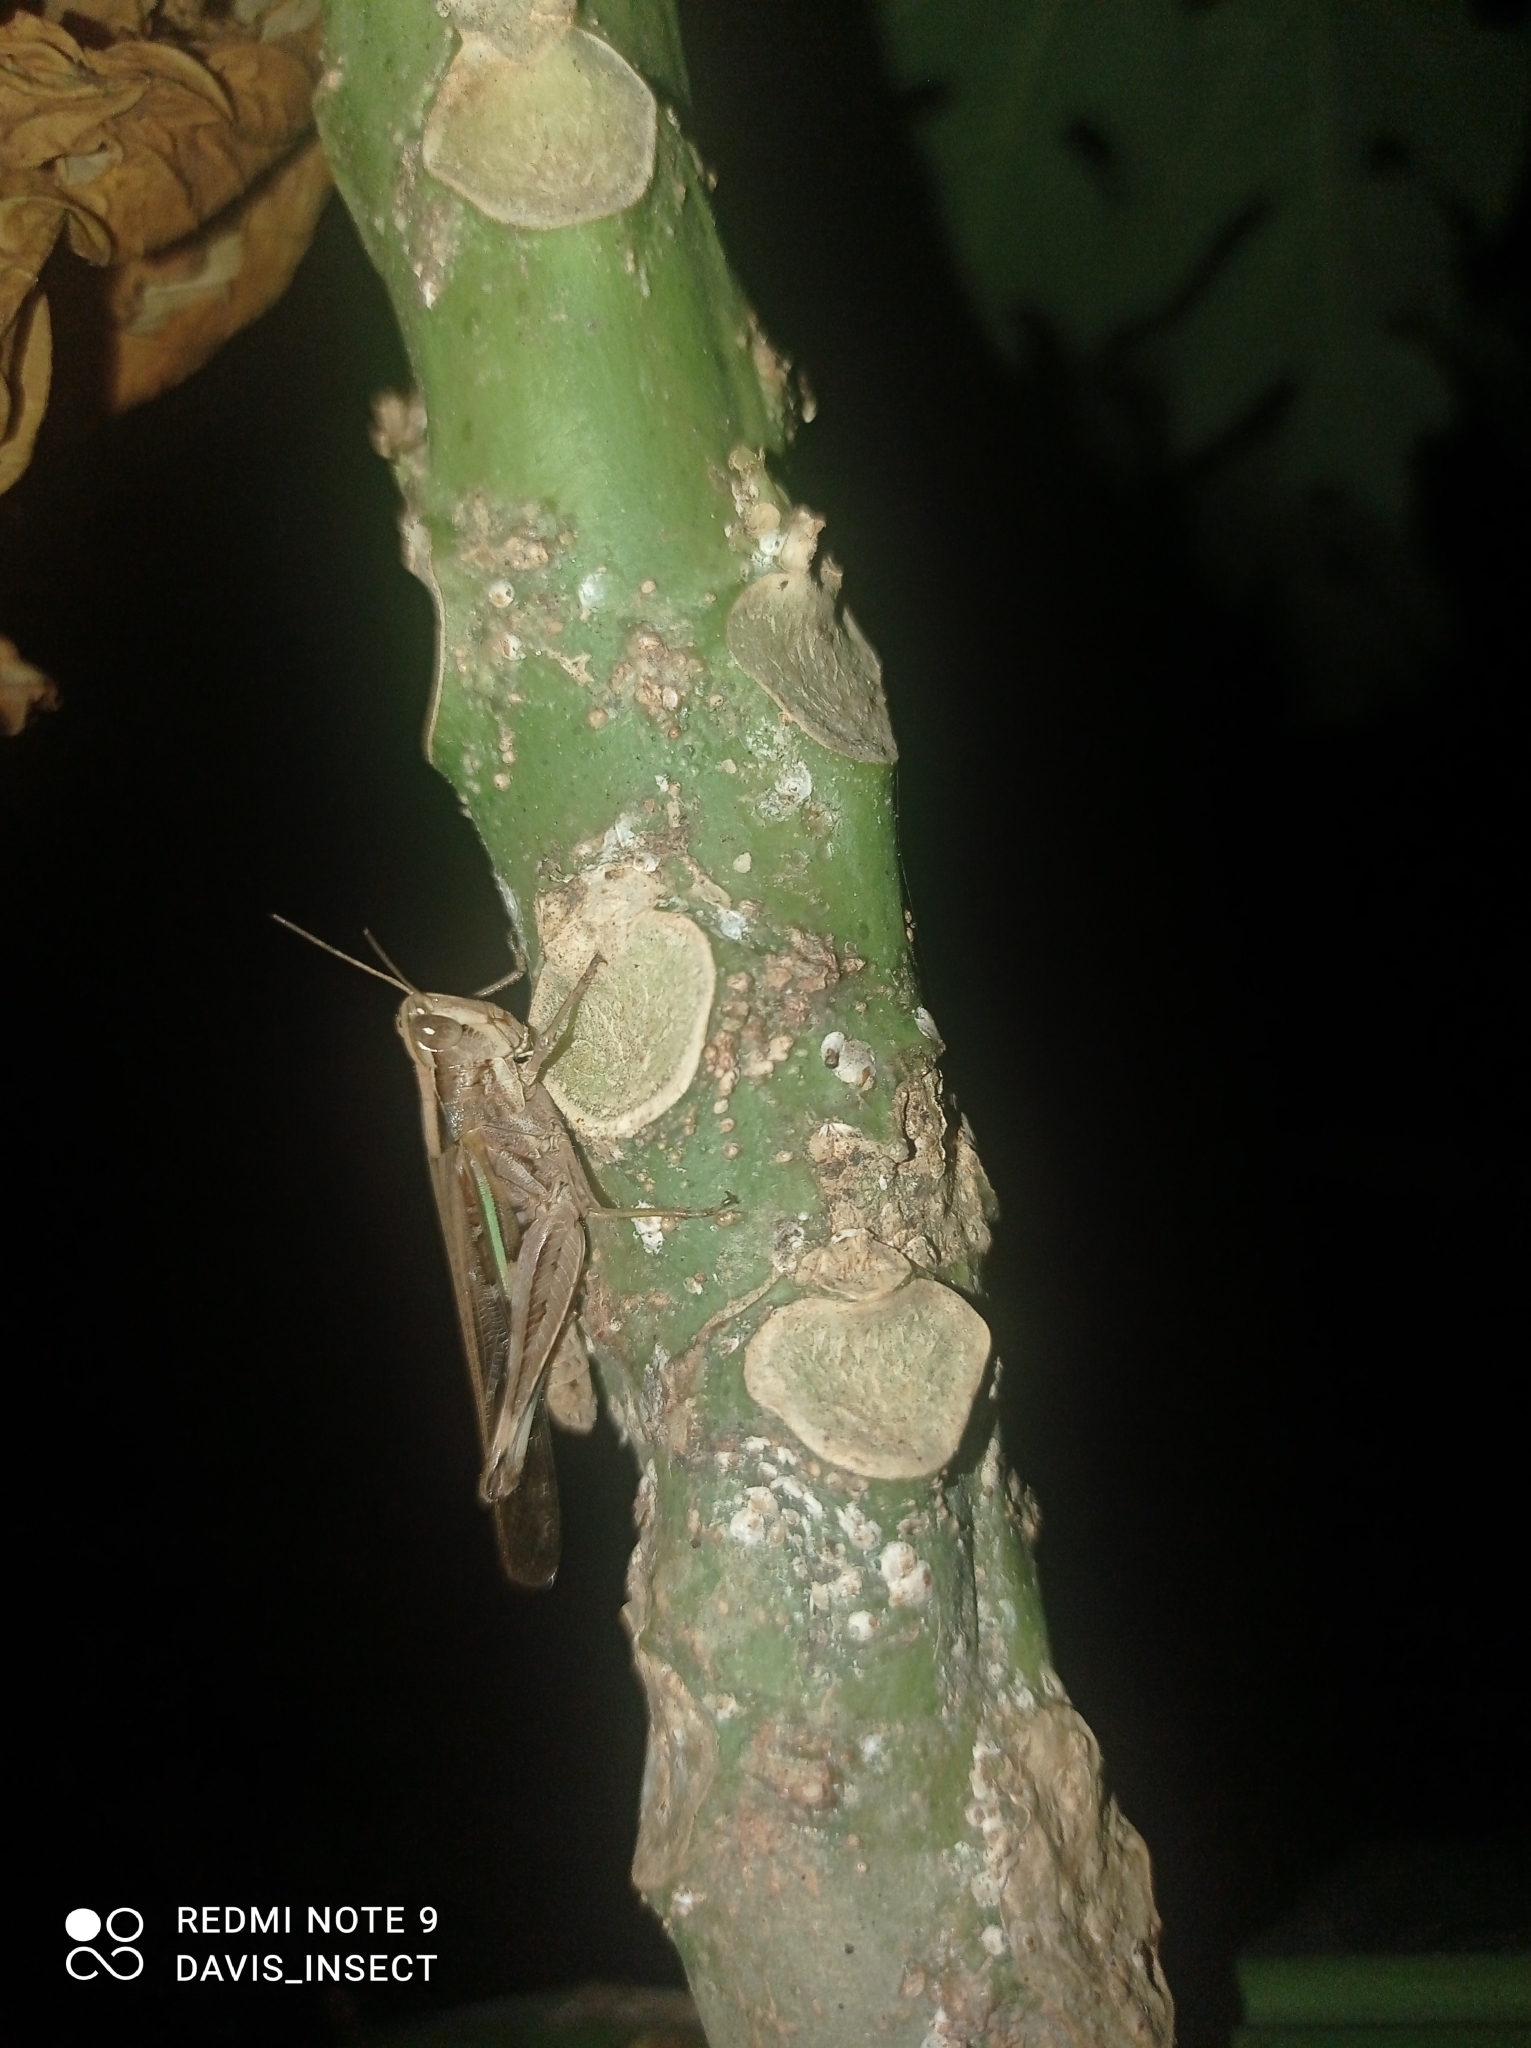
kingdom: Animalia
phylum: Arthropoda
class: Insecta
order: Orthoptera
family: Acrididae
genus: Aiolopus
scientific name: Aiolopus thalassinus
